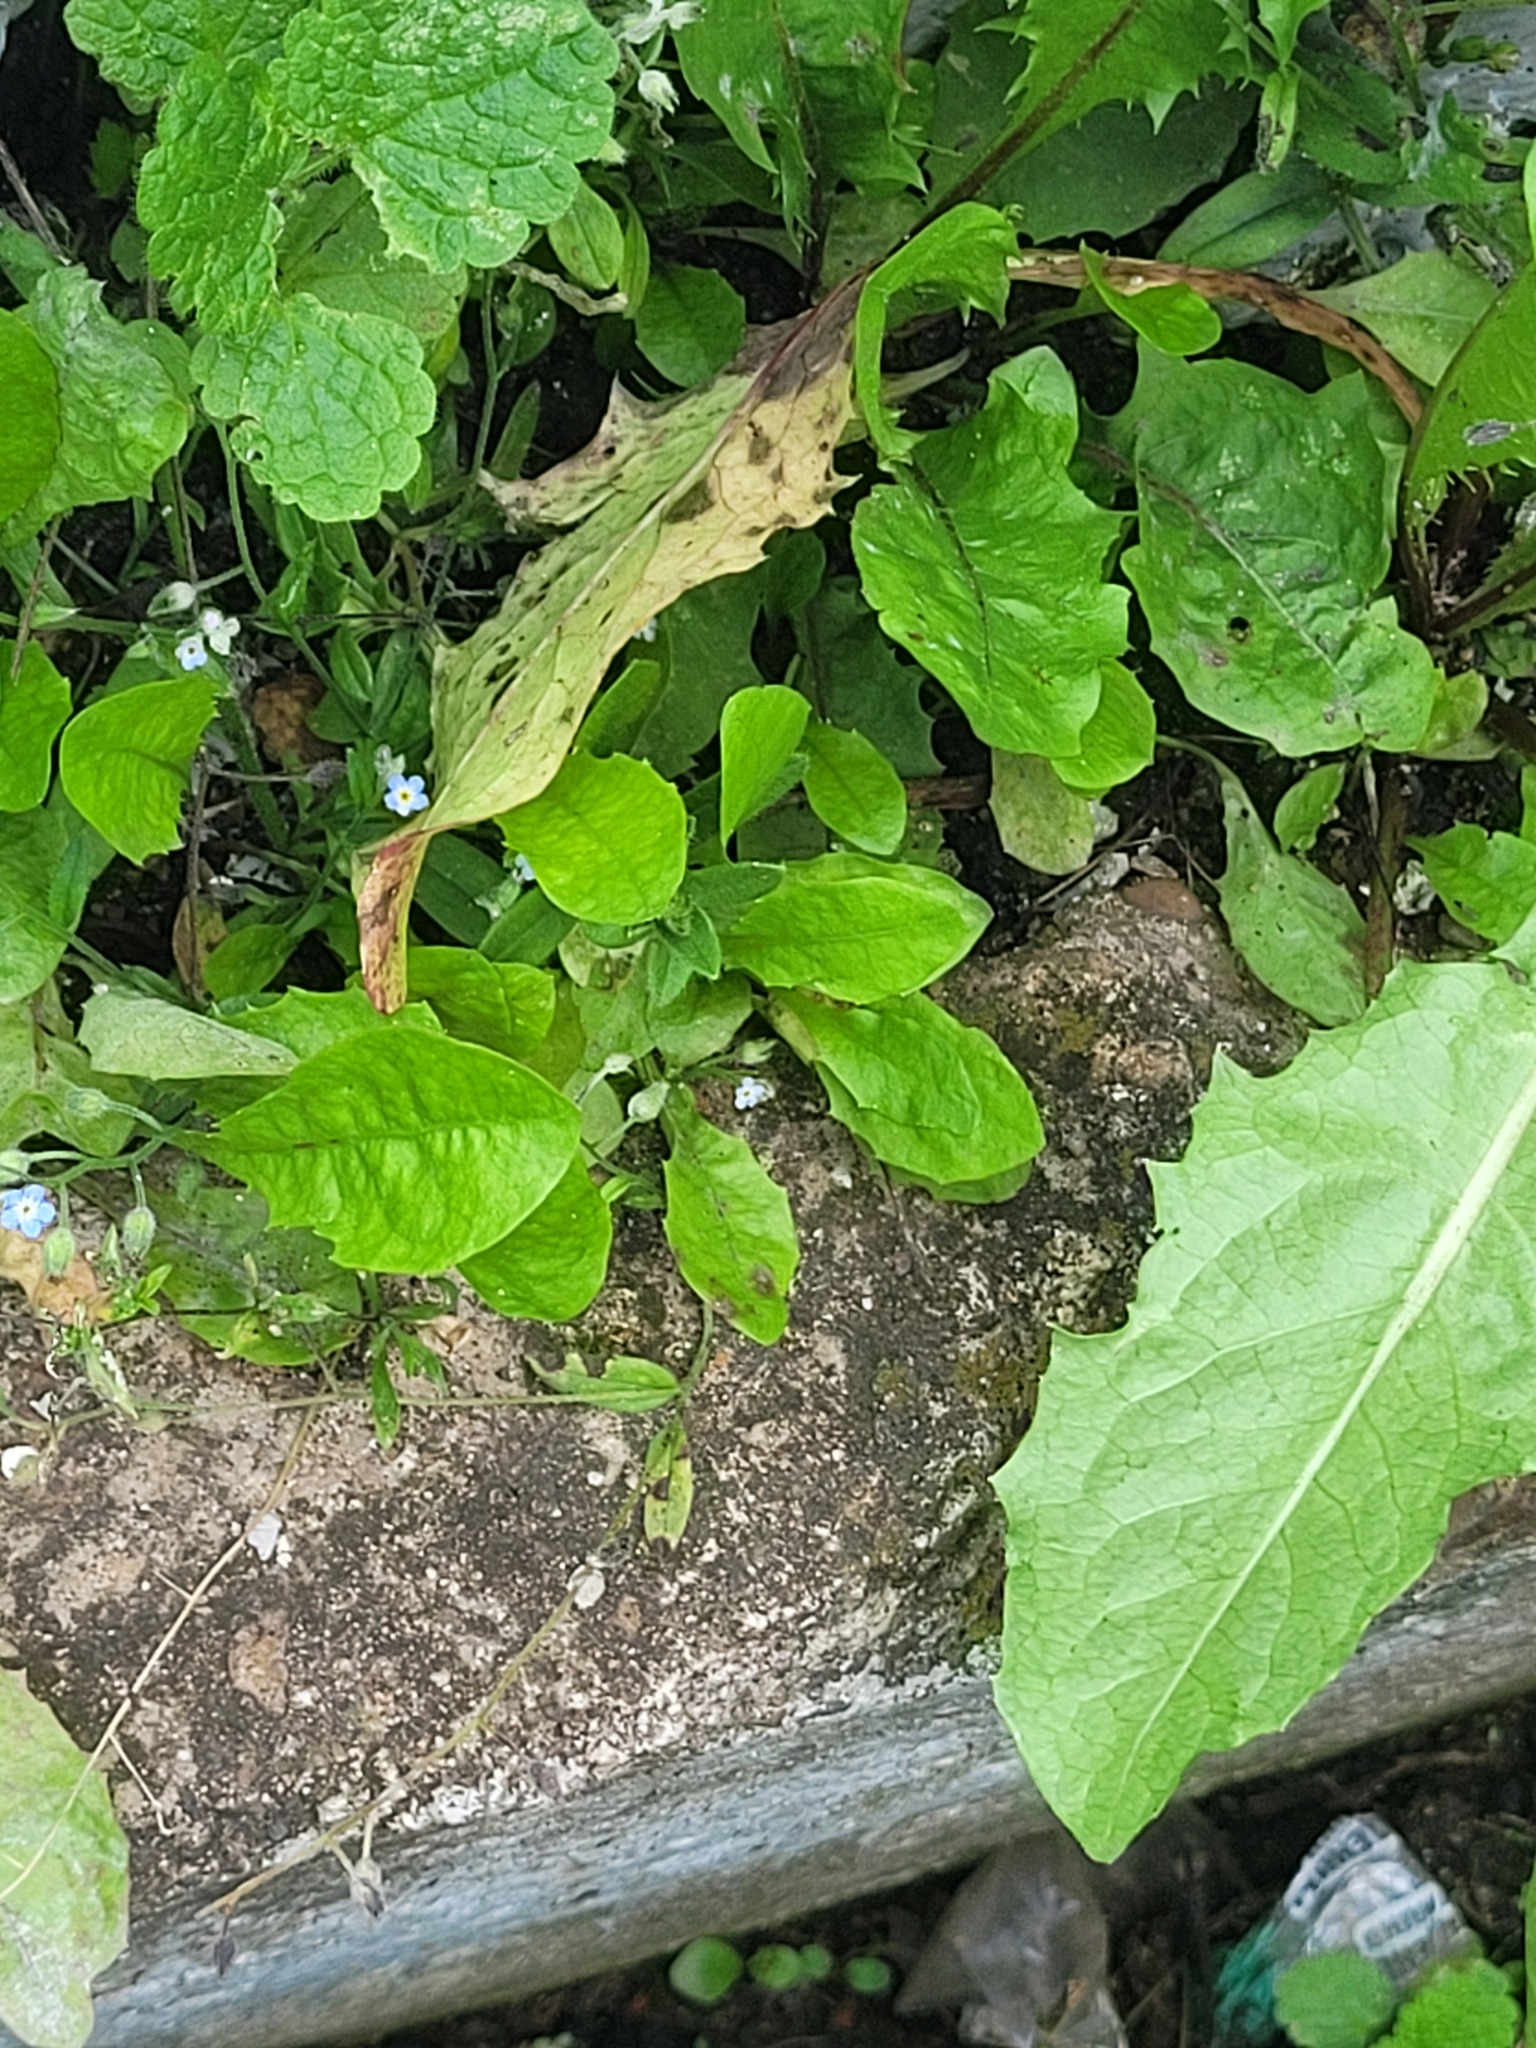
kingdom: Plantae
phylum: Tracheophyta
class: Magnoliopsida
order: Boraginales
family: Boraginaceae
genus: Myosotis
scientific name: Myosotis arvensis
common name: Field forget-me-not
